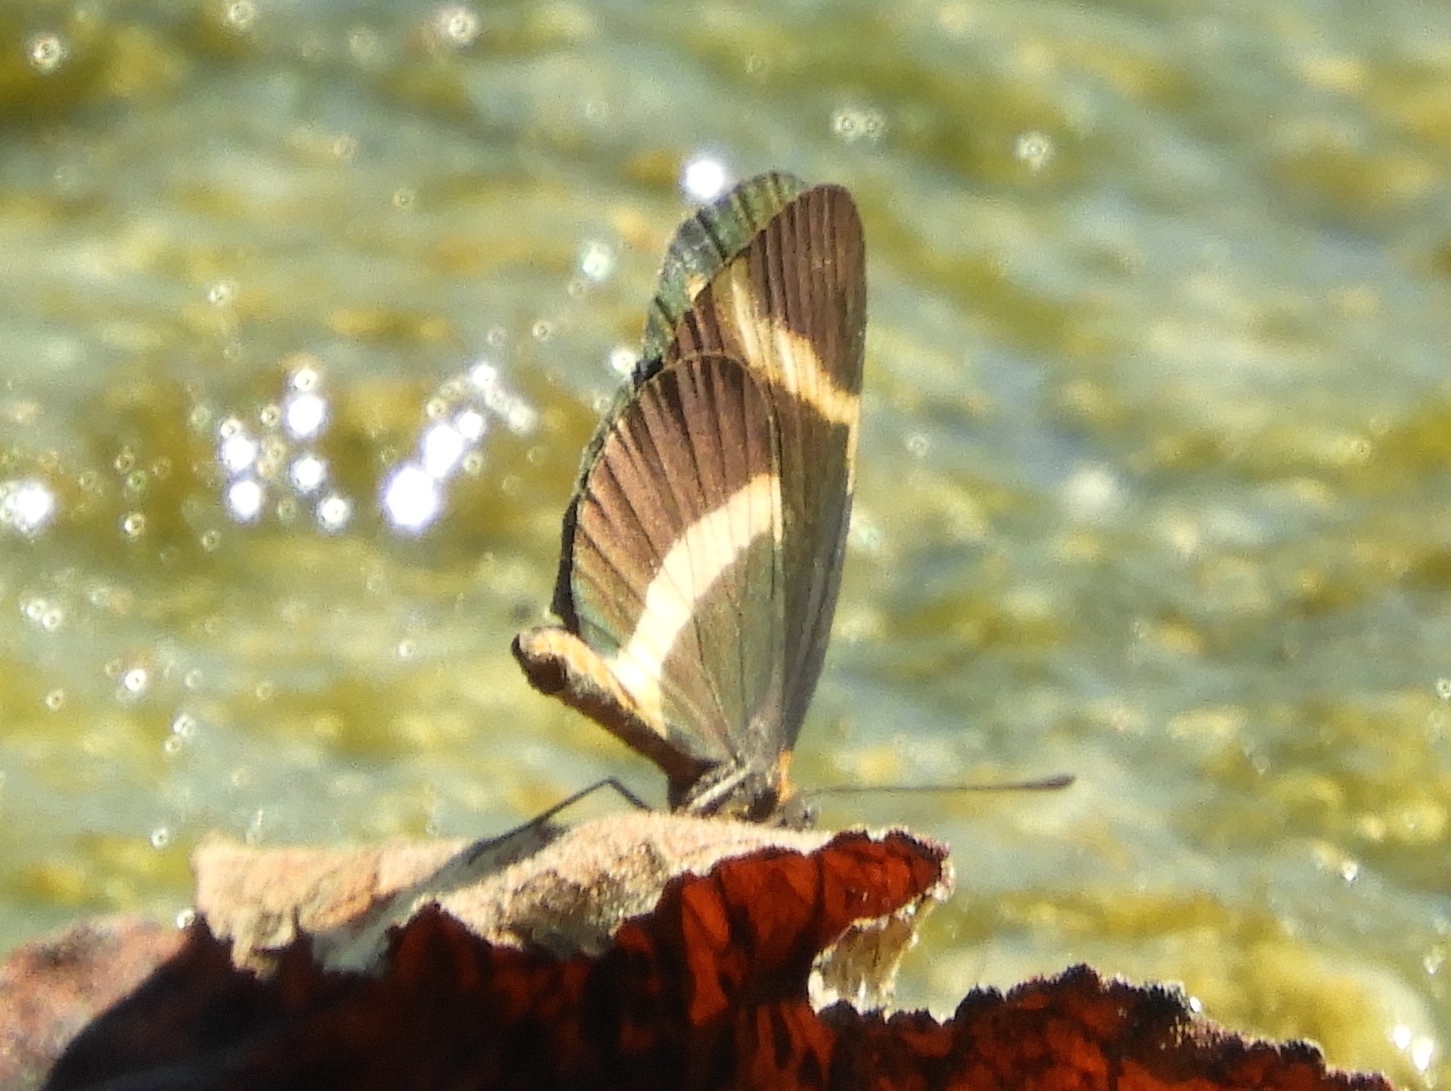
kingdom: Animalia
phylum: Arthropoda
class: Insecta
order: Lepidoptera
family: Nymphalidae
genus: Microtia
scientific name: Microtia elva
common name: Elf
